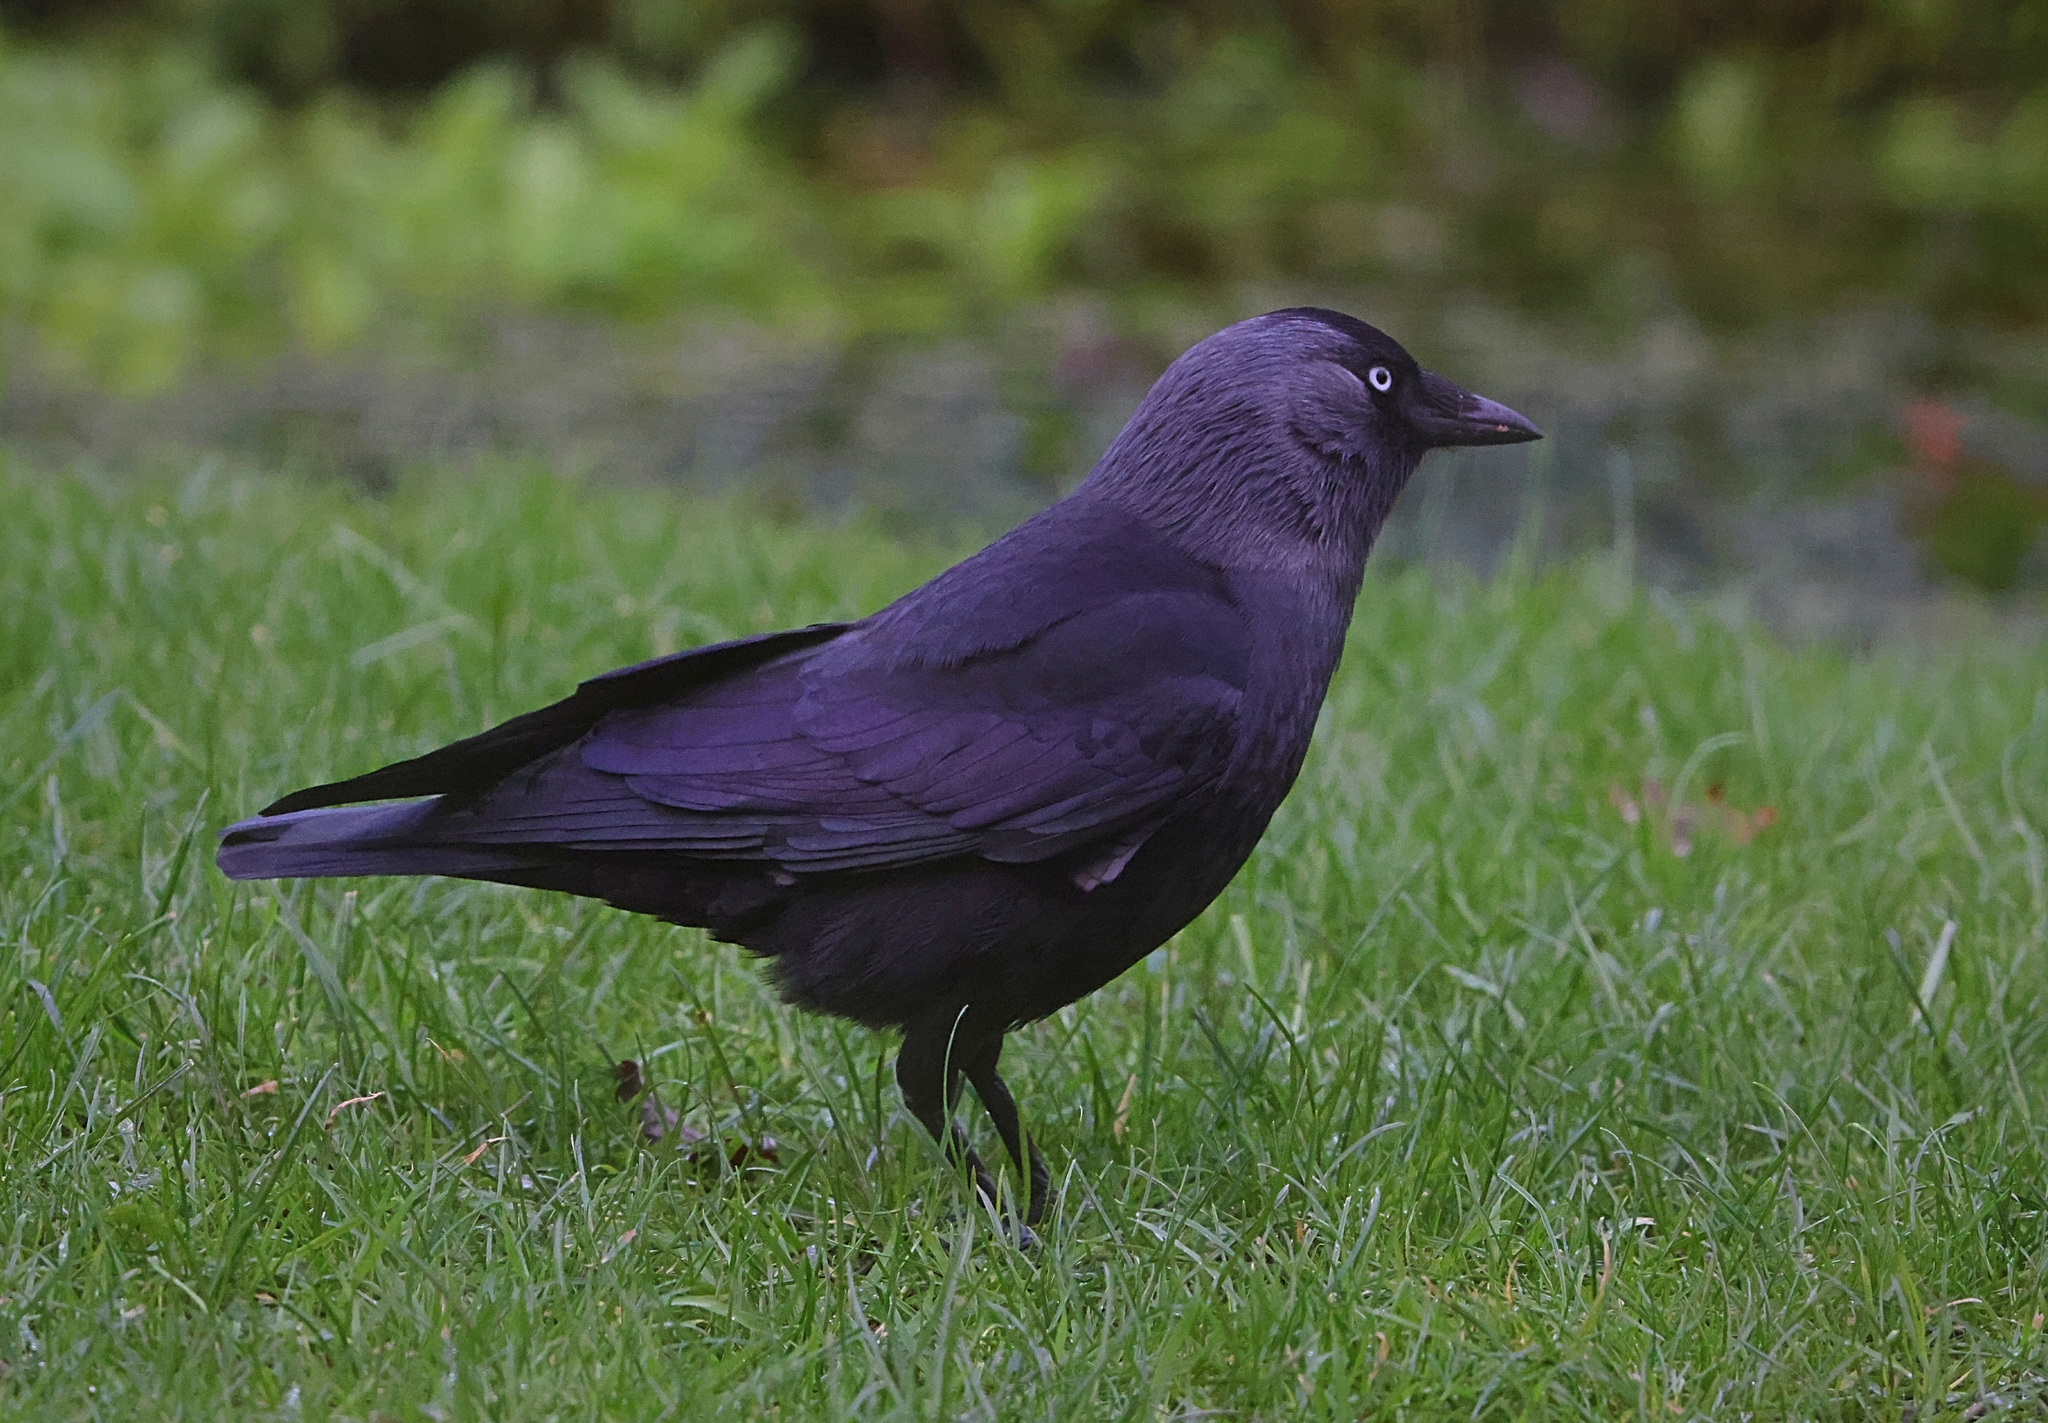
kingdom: Animalia
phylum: Chordata
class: Aves
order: Passeriformes
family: Corvidae
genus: Coloeus
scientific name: Coloeus monedula
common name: Western jackdaw
